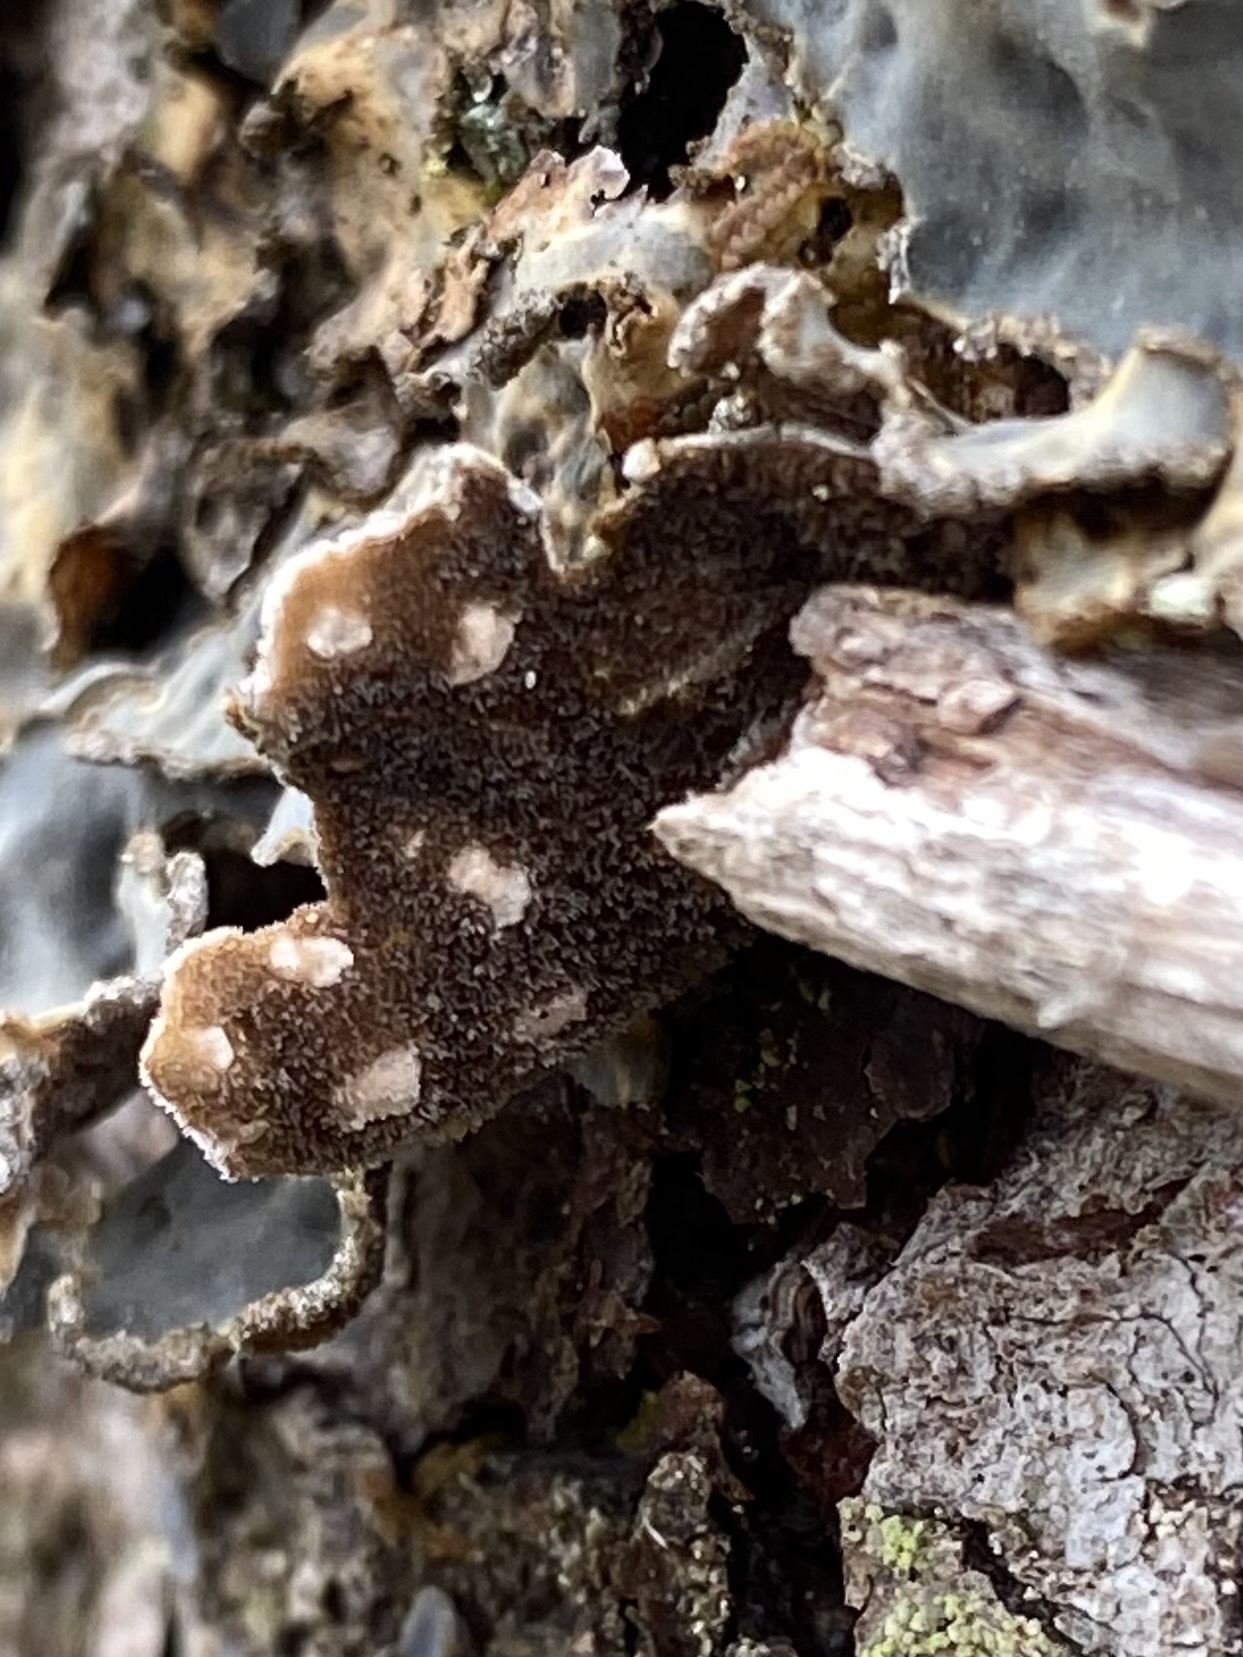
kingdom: Fungi
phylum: Ascomycota
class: Lecanoromycetes
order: Peltigerales
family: Lobariaceae
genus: Lobarina
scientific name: Lobarina scrobiculata
